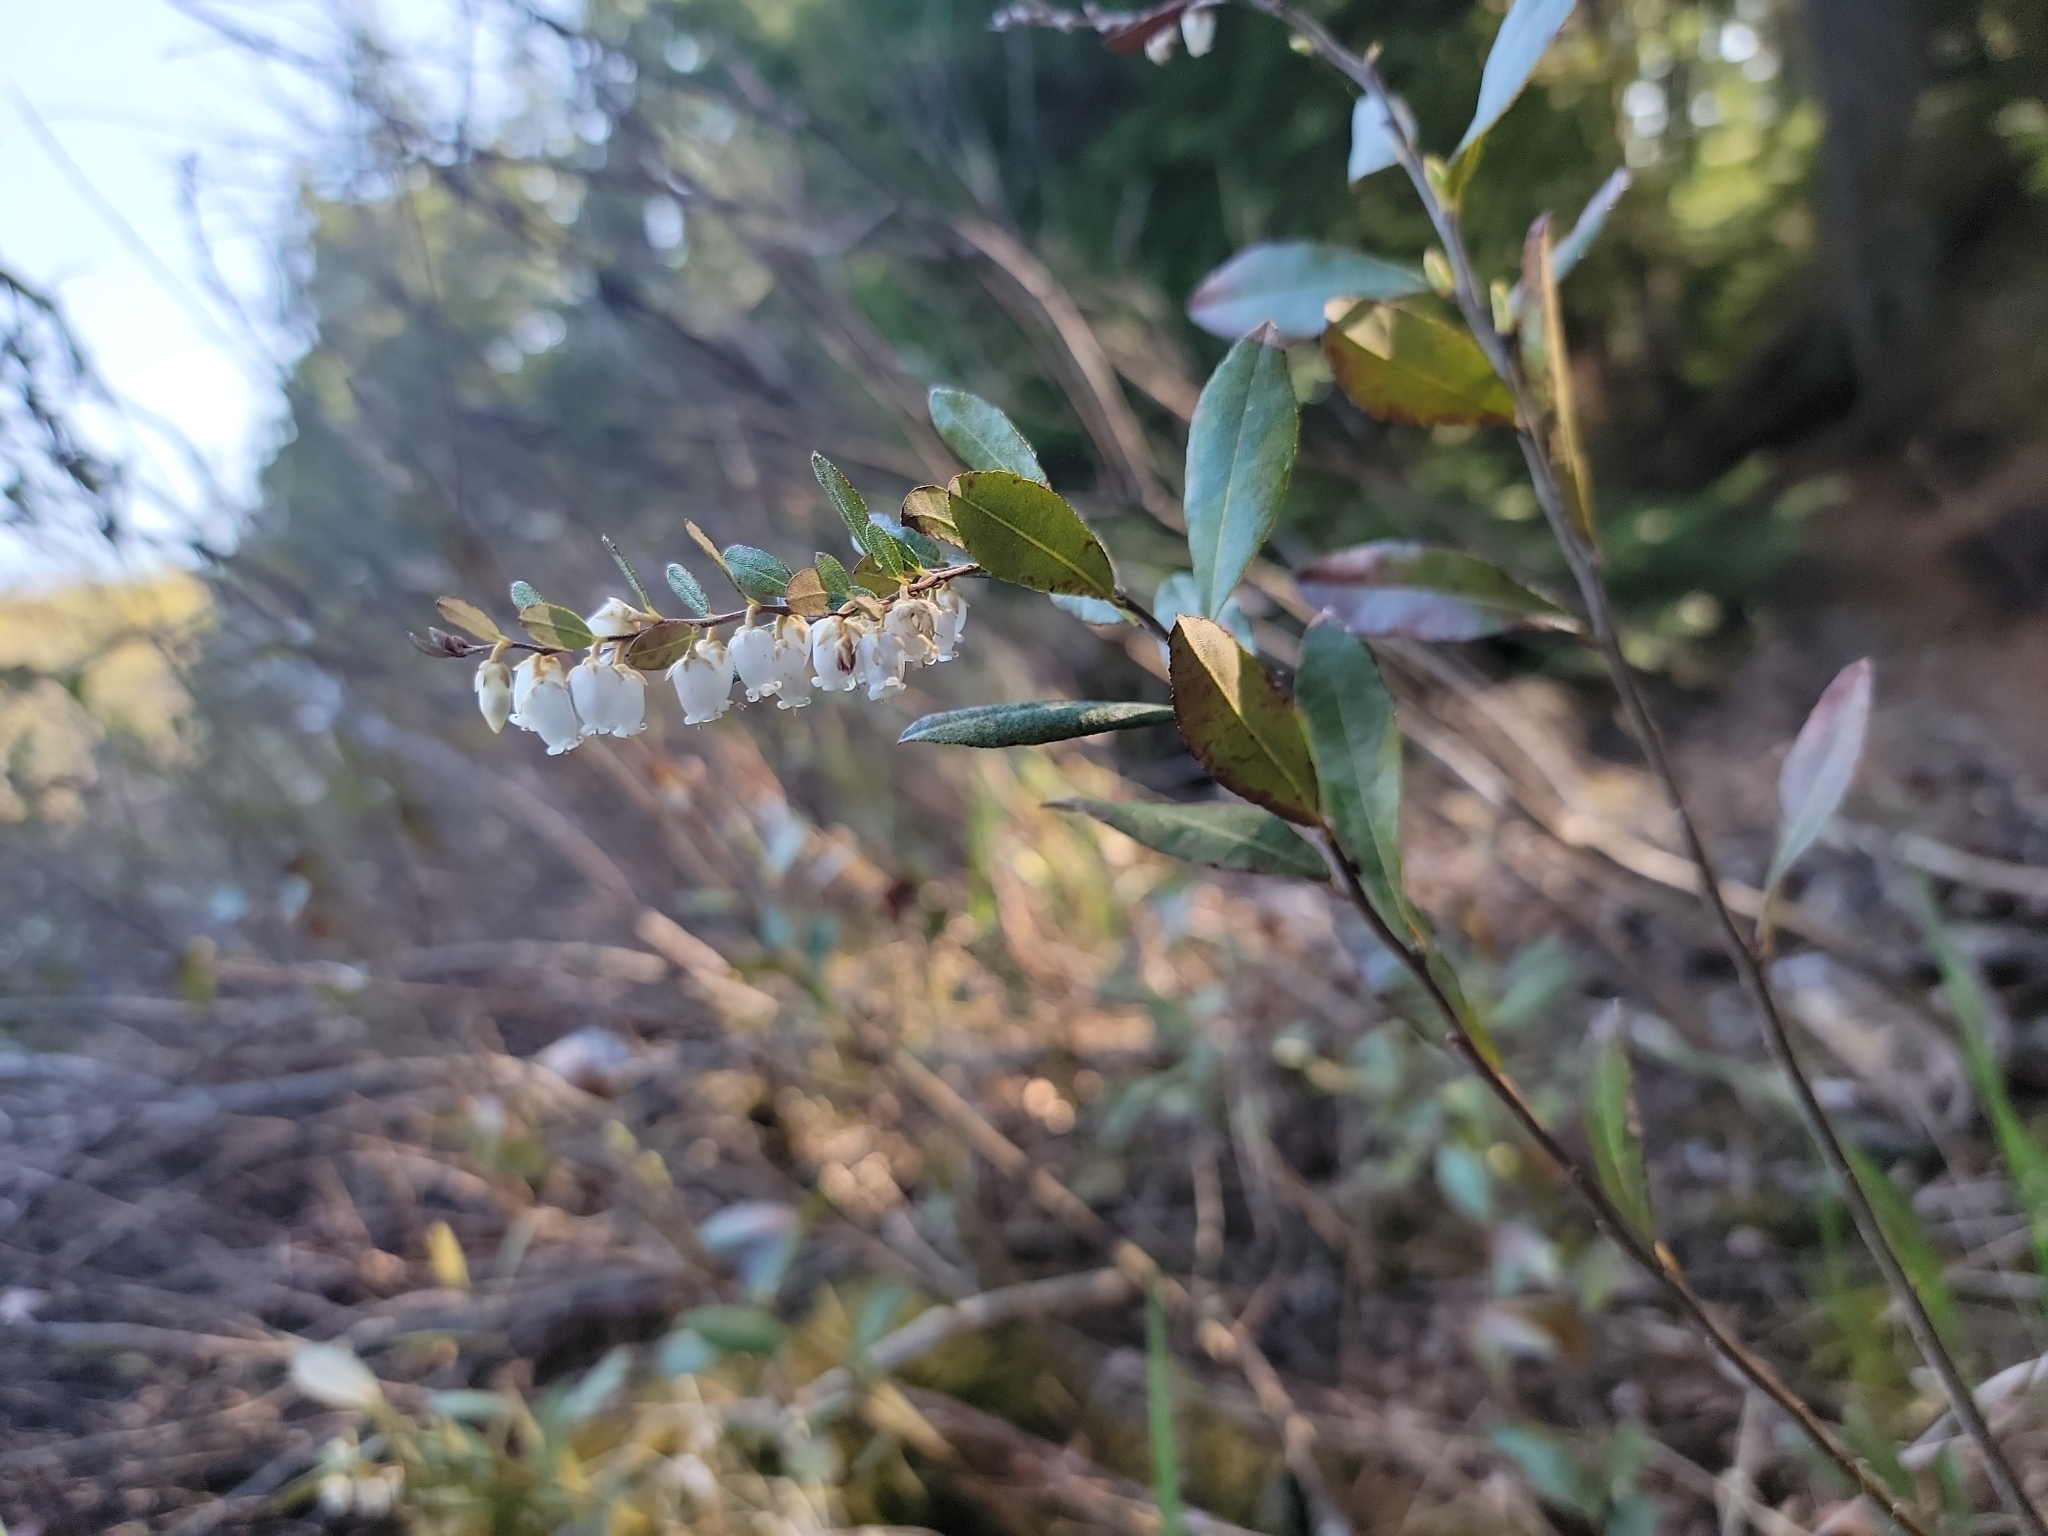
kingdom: Plantae
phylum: Tracheophyta
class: Magnoliopsida
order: Ericales
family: Ericaceae
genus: Chamaedaphne
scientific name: Chamaedaphne calyculata
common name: Leatherleaf
